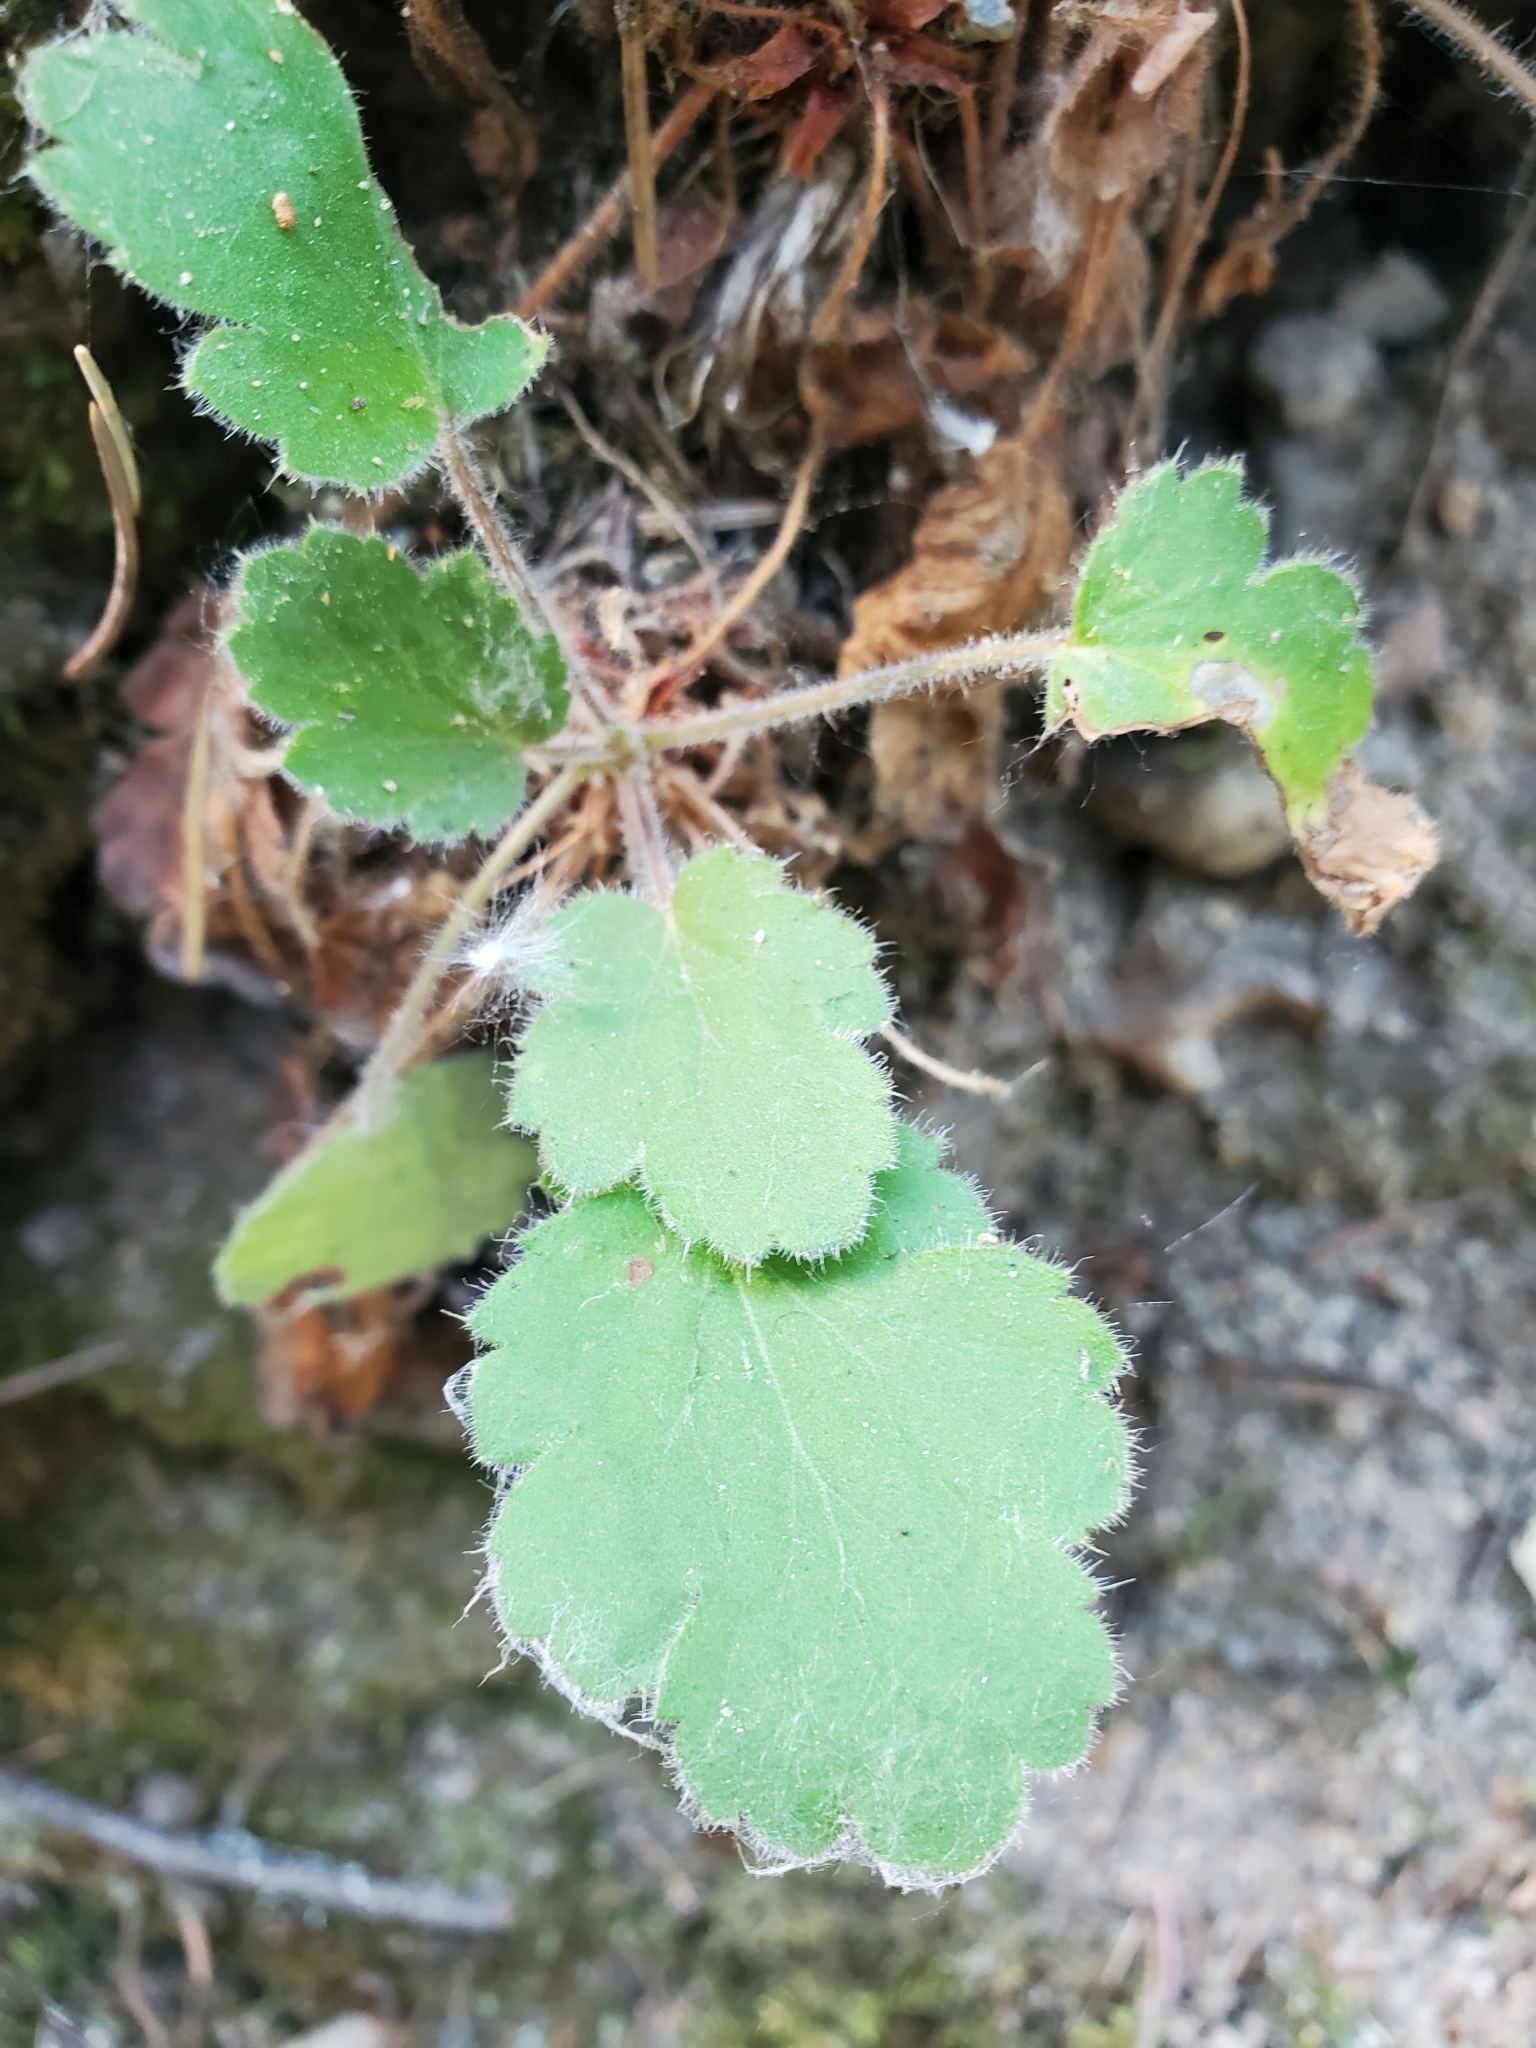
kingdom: Plantae
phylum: Tracheophyta
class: Magnoliopsida
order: Saxifragales
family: Saxifragaceae
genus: Heuchera
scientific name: Heuchera cylindrica
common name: Mat alumroot
